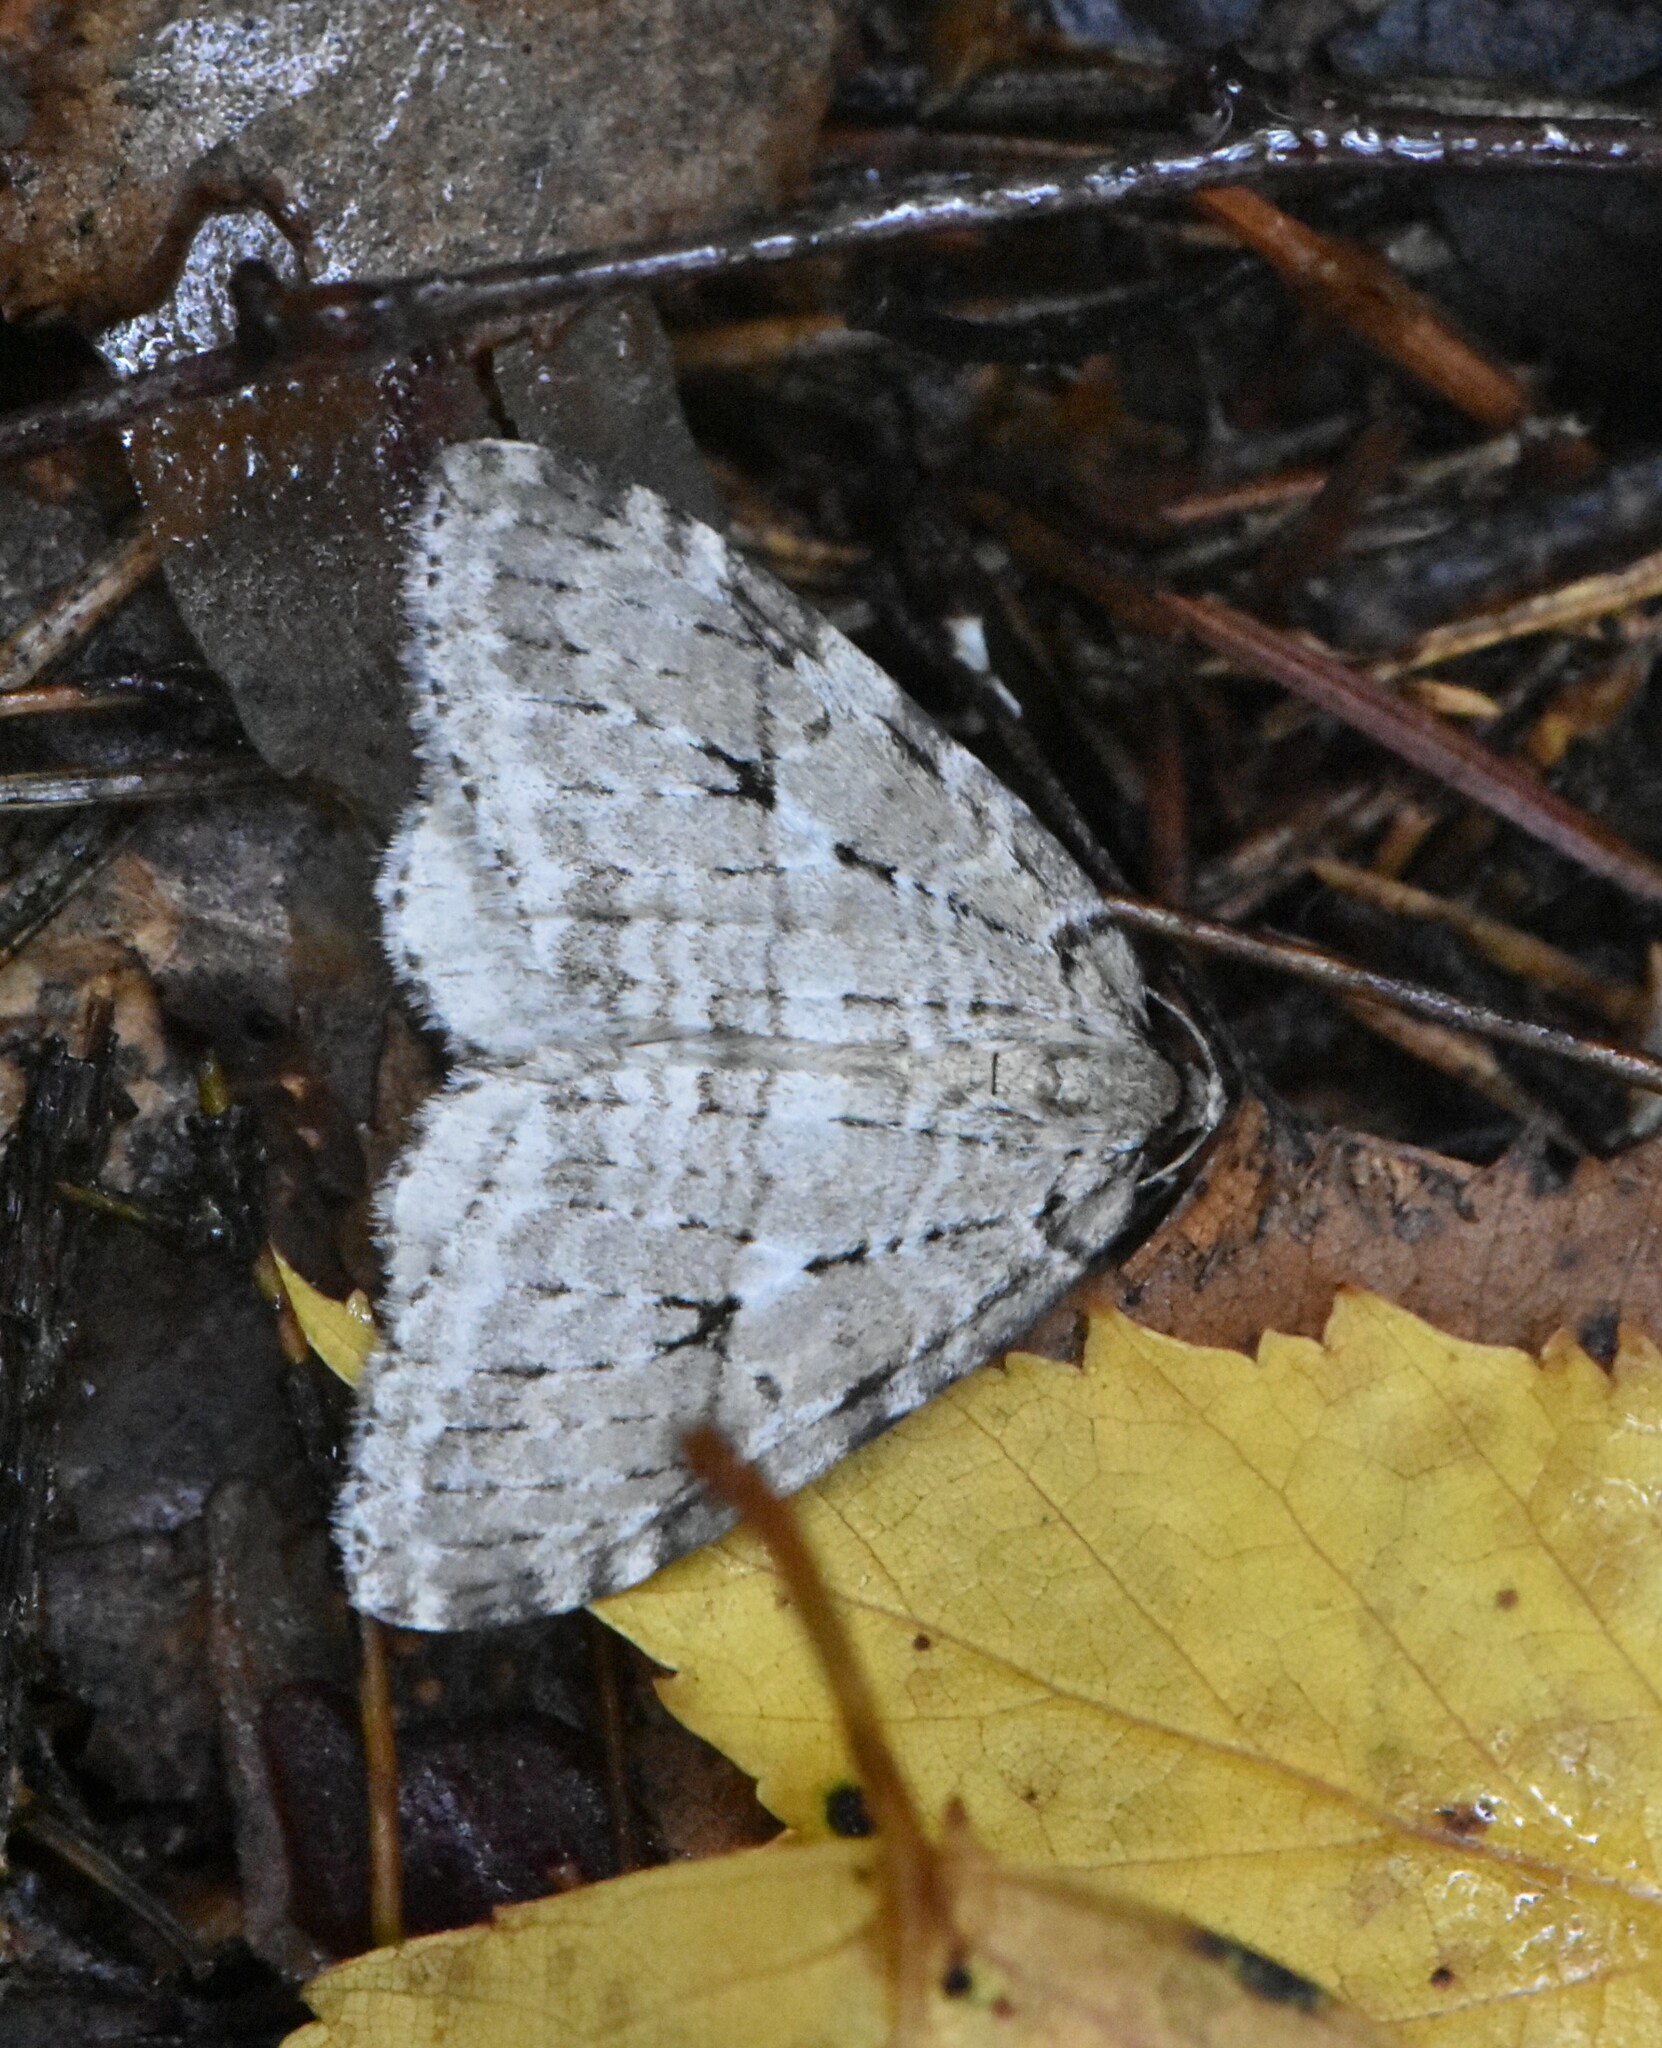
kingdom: Animalia
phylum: Arthropoda
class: Insecta
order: Lepidoptera
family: Geometridae
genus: Epirrita
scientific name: Epirrita autumnata
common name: Autumnal moth
